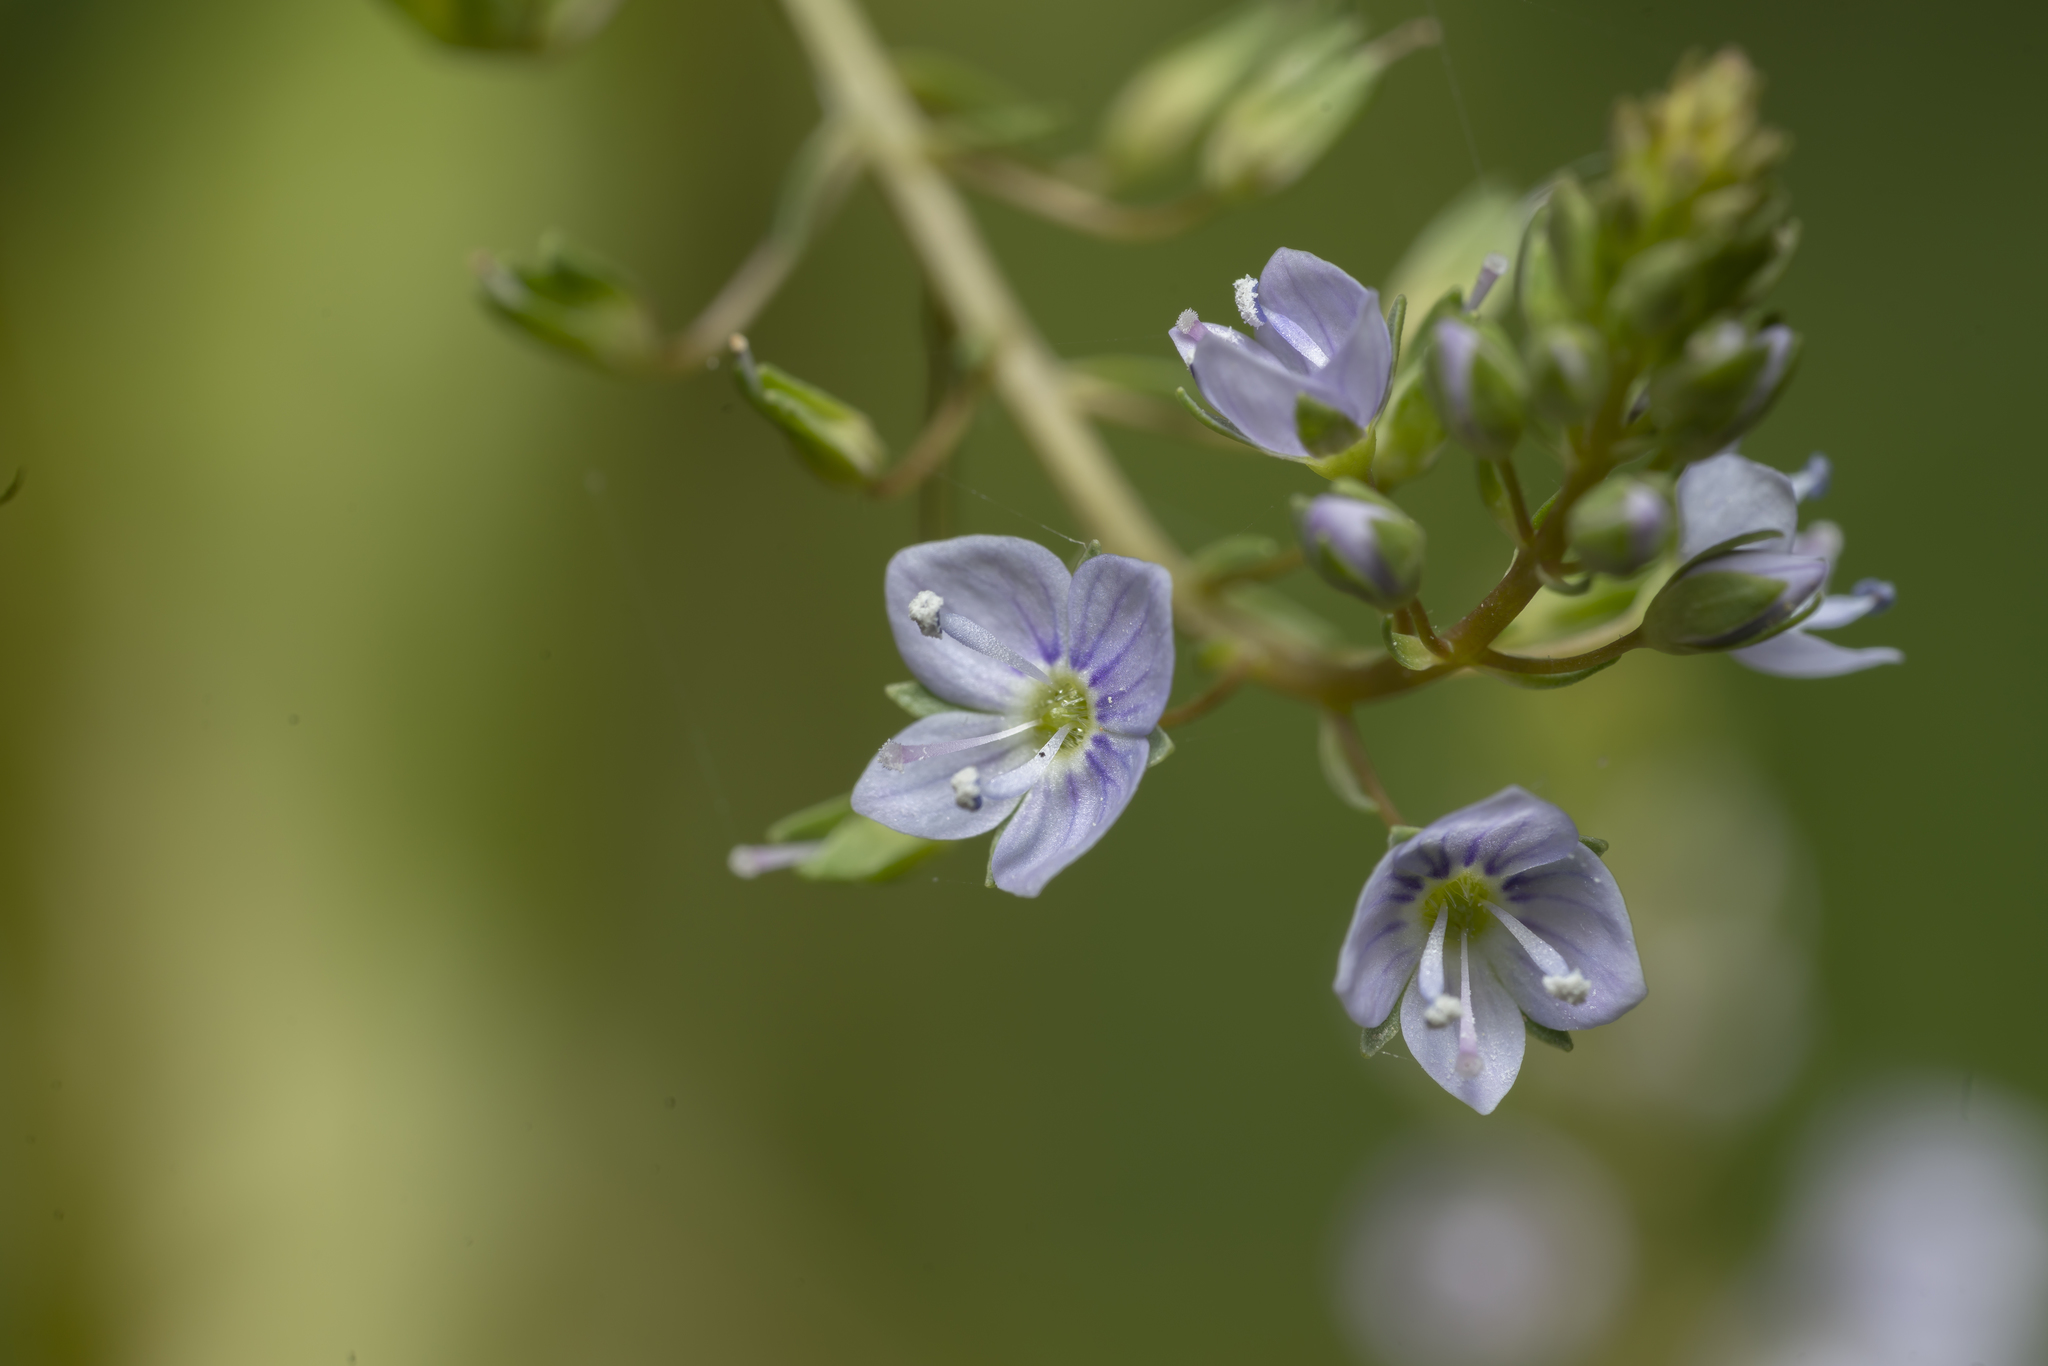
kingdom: Plantae
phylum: Tracheophyta
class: Magnoliopsida
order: Lamiales
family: Plantaginaceae
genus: Veronica
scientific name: Veronica anagallis-aquatica
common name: Water speedwell
